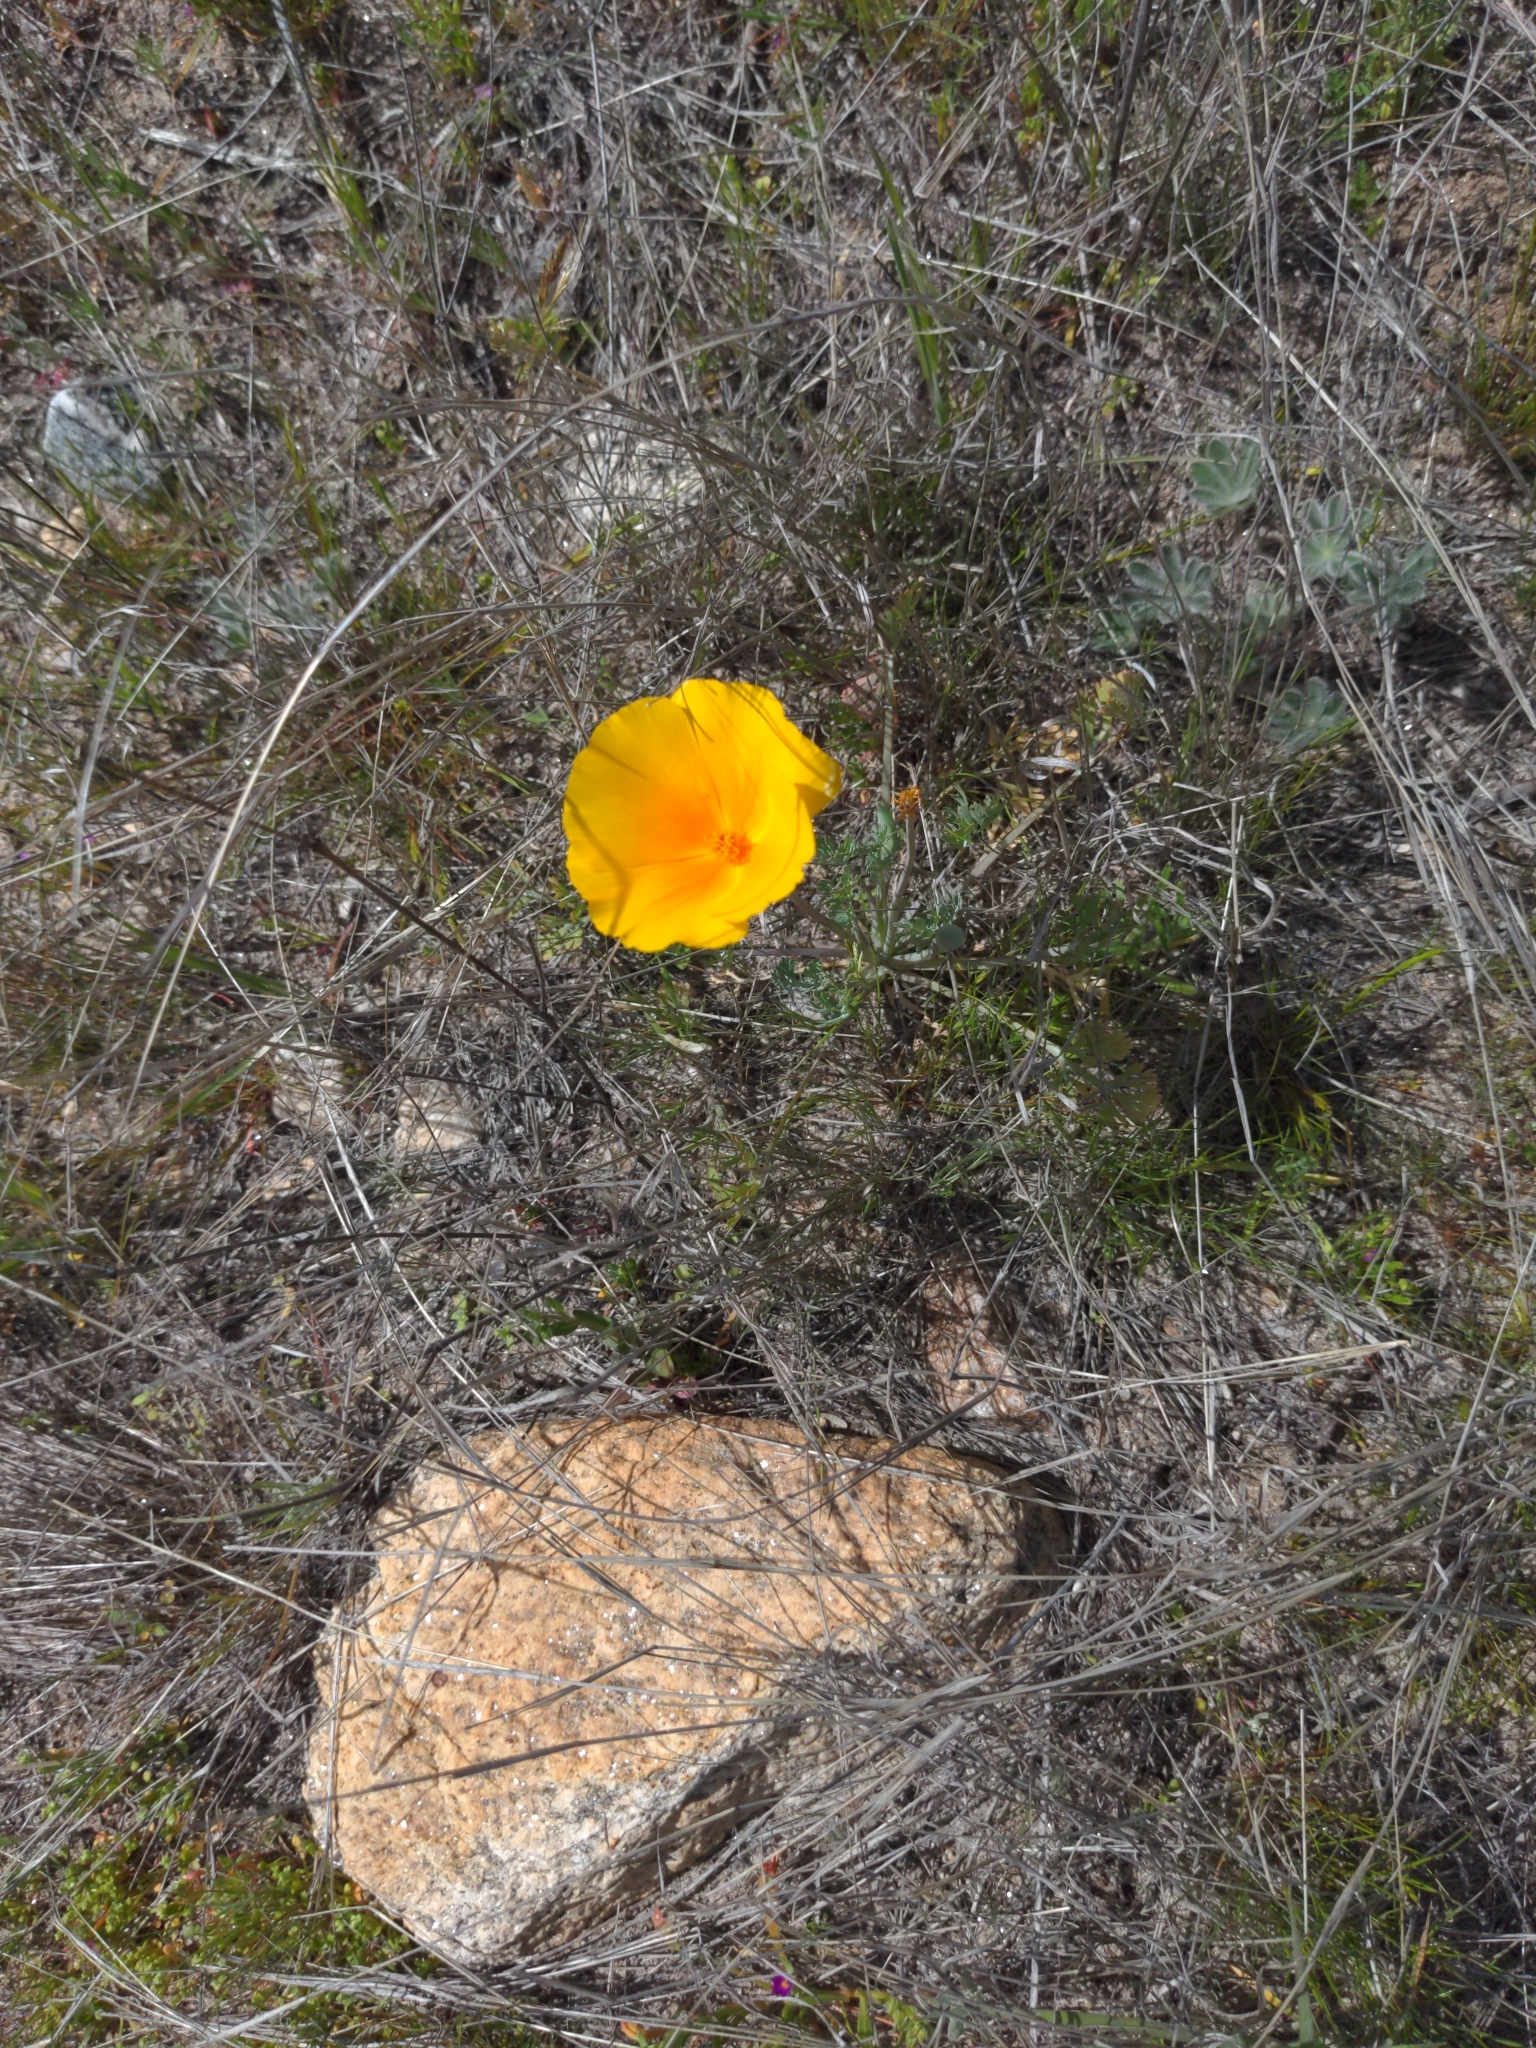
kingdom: Plantae
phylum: Tracheophyta
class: Magnoliopsida
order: Ranunculales
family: Papaveraceae
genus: Eschscholzia
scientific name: Eschscholzia californica
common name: California poppy
